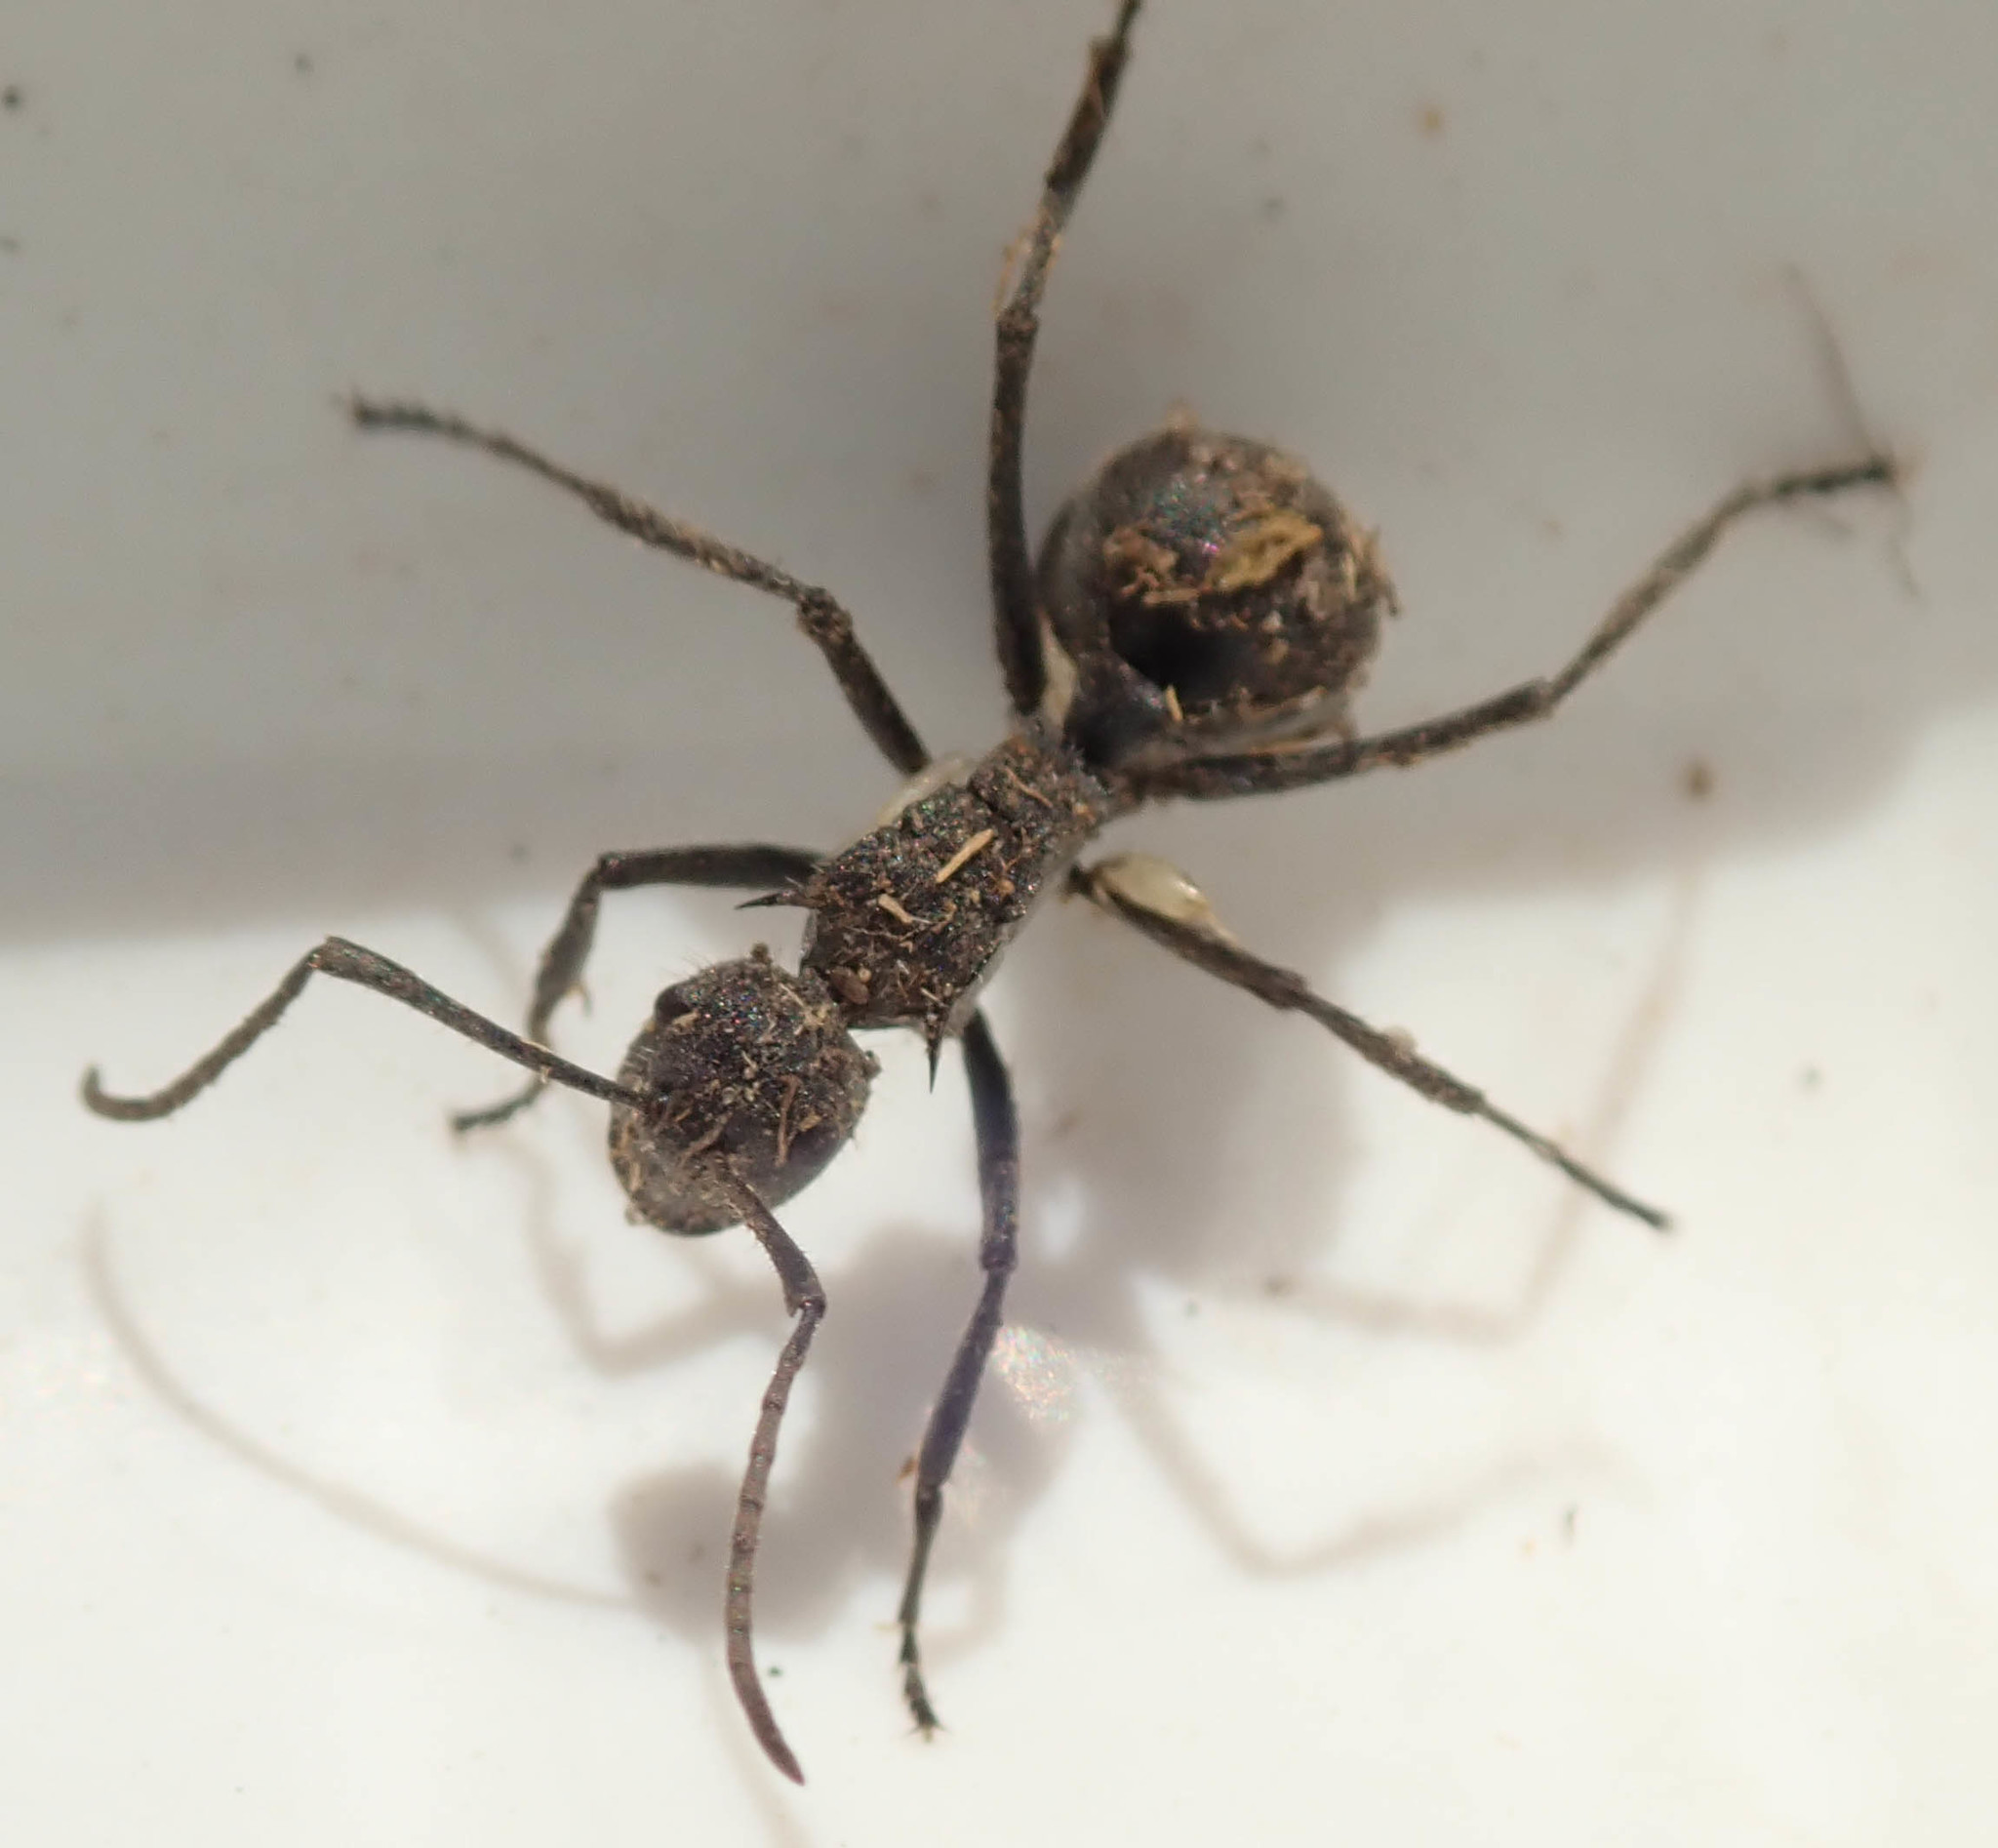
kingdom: Animalia
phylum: Arthropoda
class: Insecta
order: Hymenoptera
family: Formicidae
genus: Polyrhachis
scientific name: Polyrhachis schistacea
